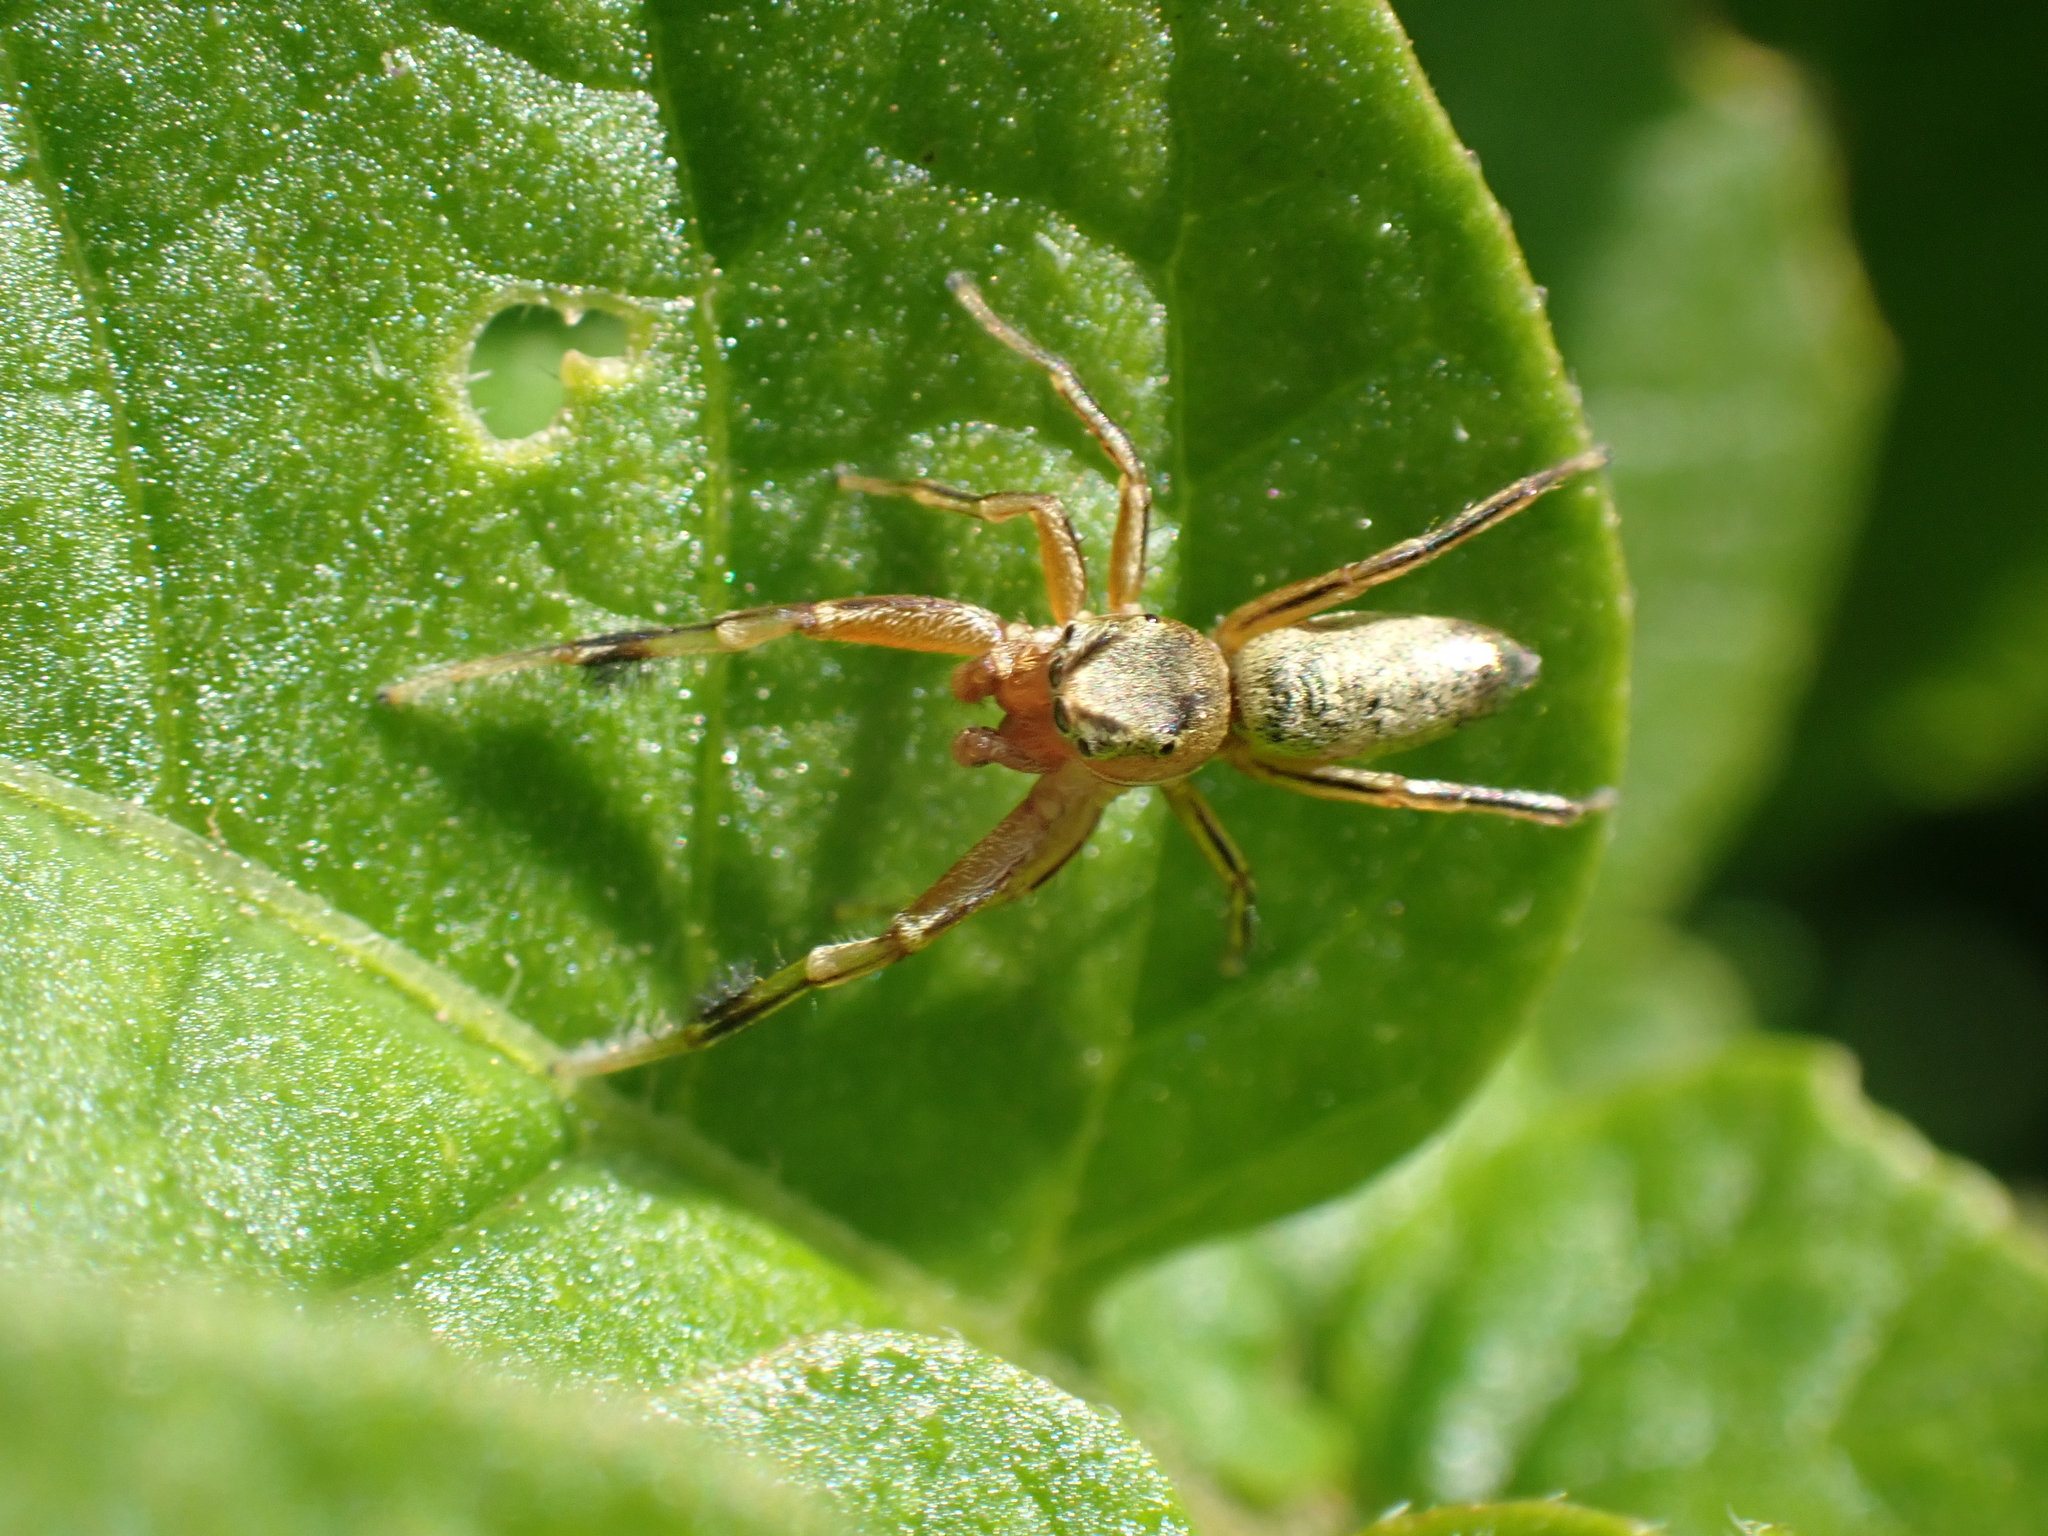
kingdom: Animalia
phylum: Arthropoda
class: Arachnida
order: Araneae
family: Salticidae
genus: Tutelina
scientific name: Tutelina elegans
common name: Thin-spined jumping spider
